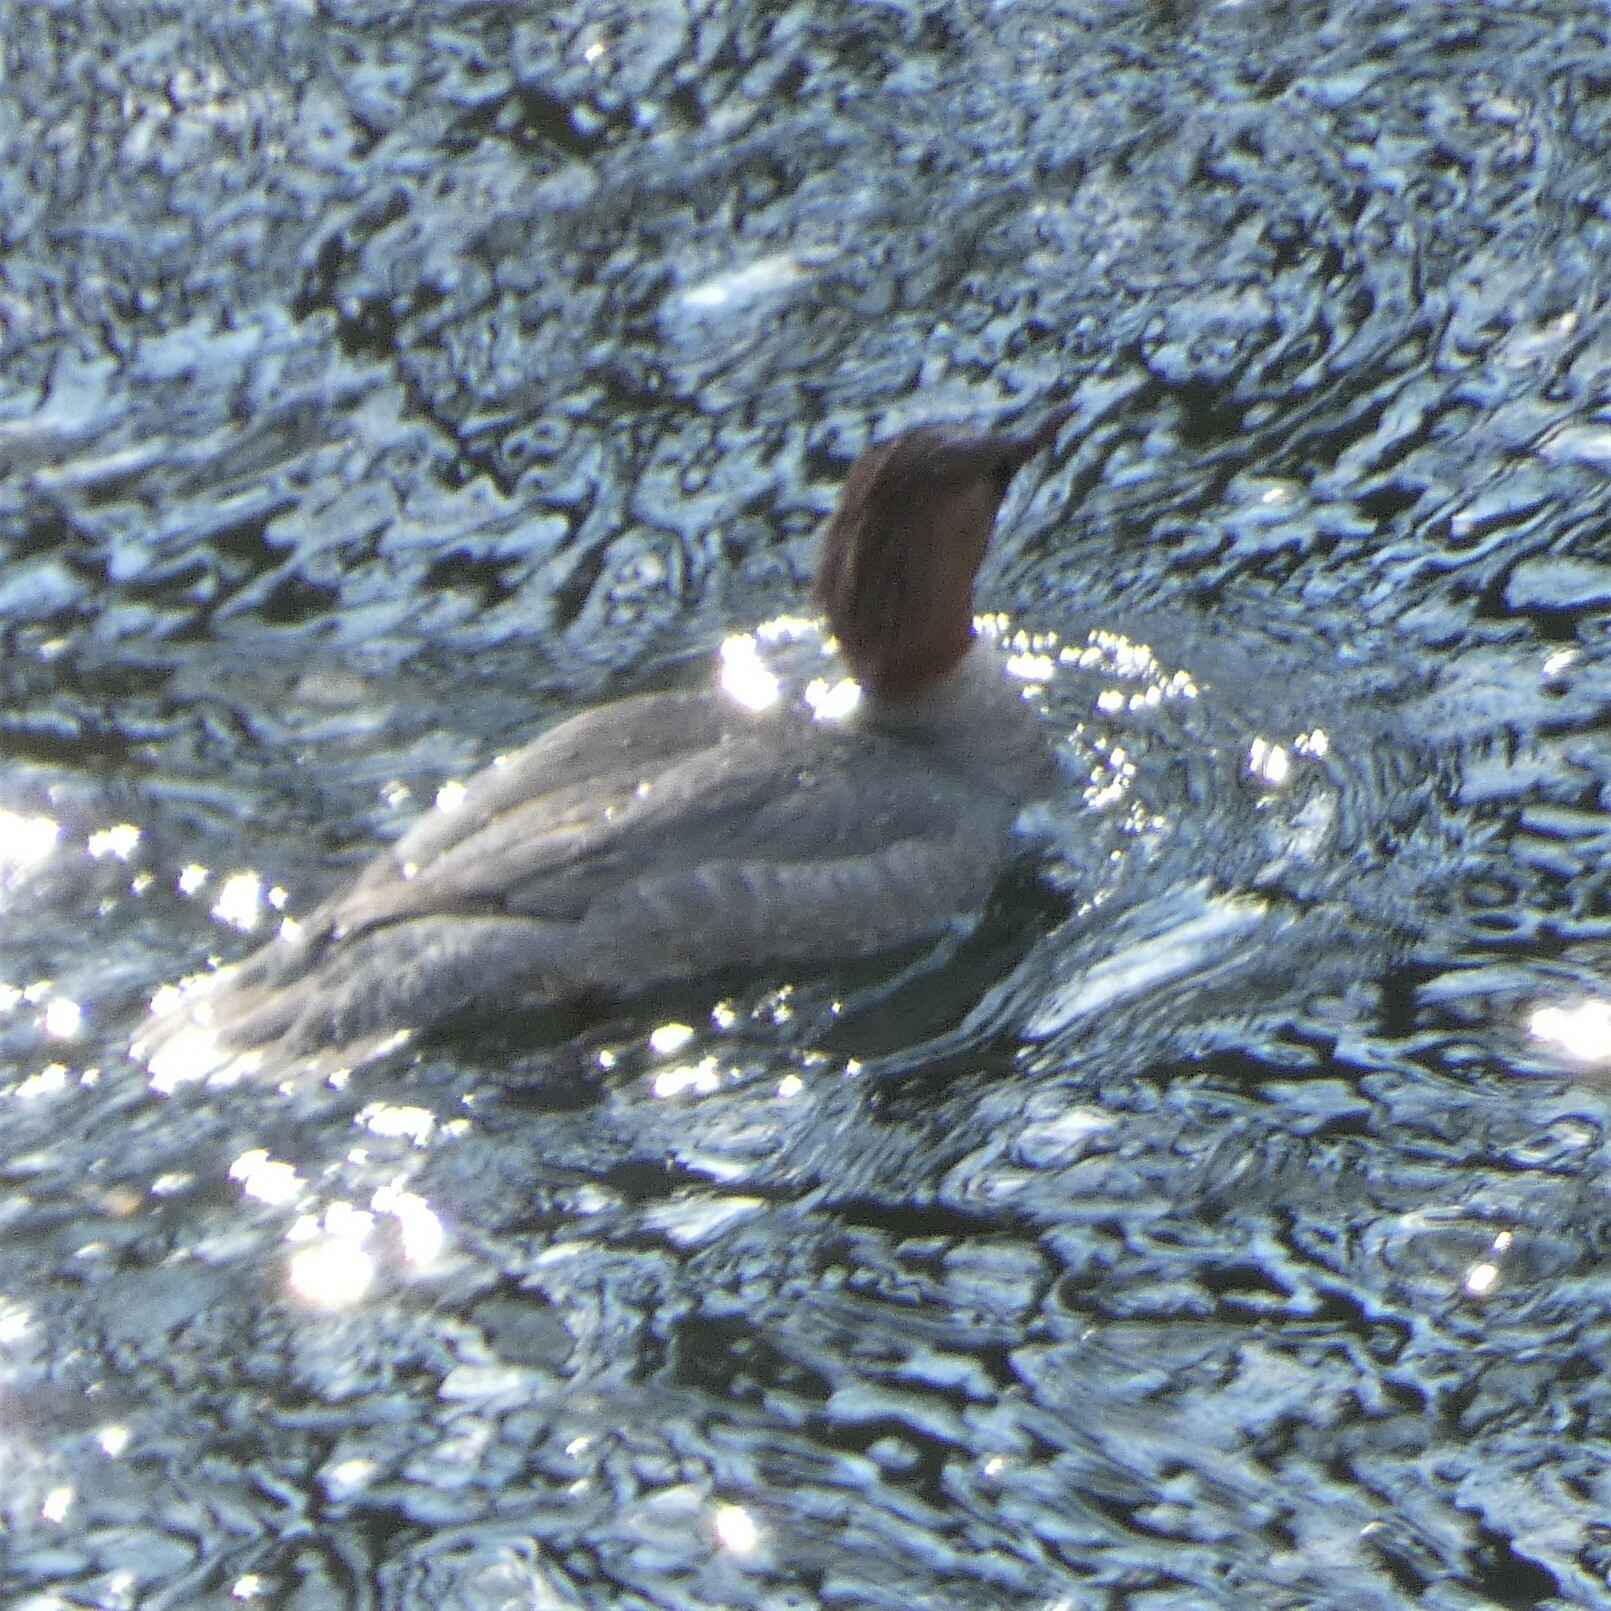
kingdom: Animalia
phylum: Chordata
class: Aves
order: Anseriformes
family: Anatidae
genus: Mergus
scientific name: Mergus merganser
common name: Common merganser
